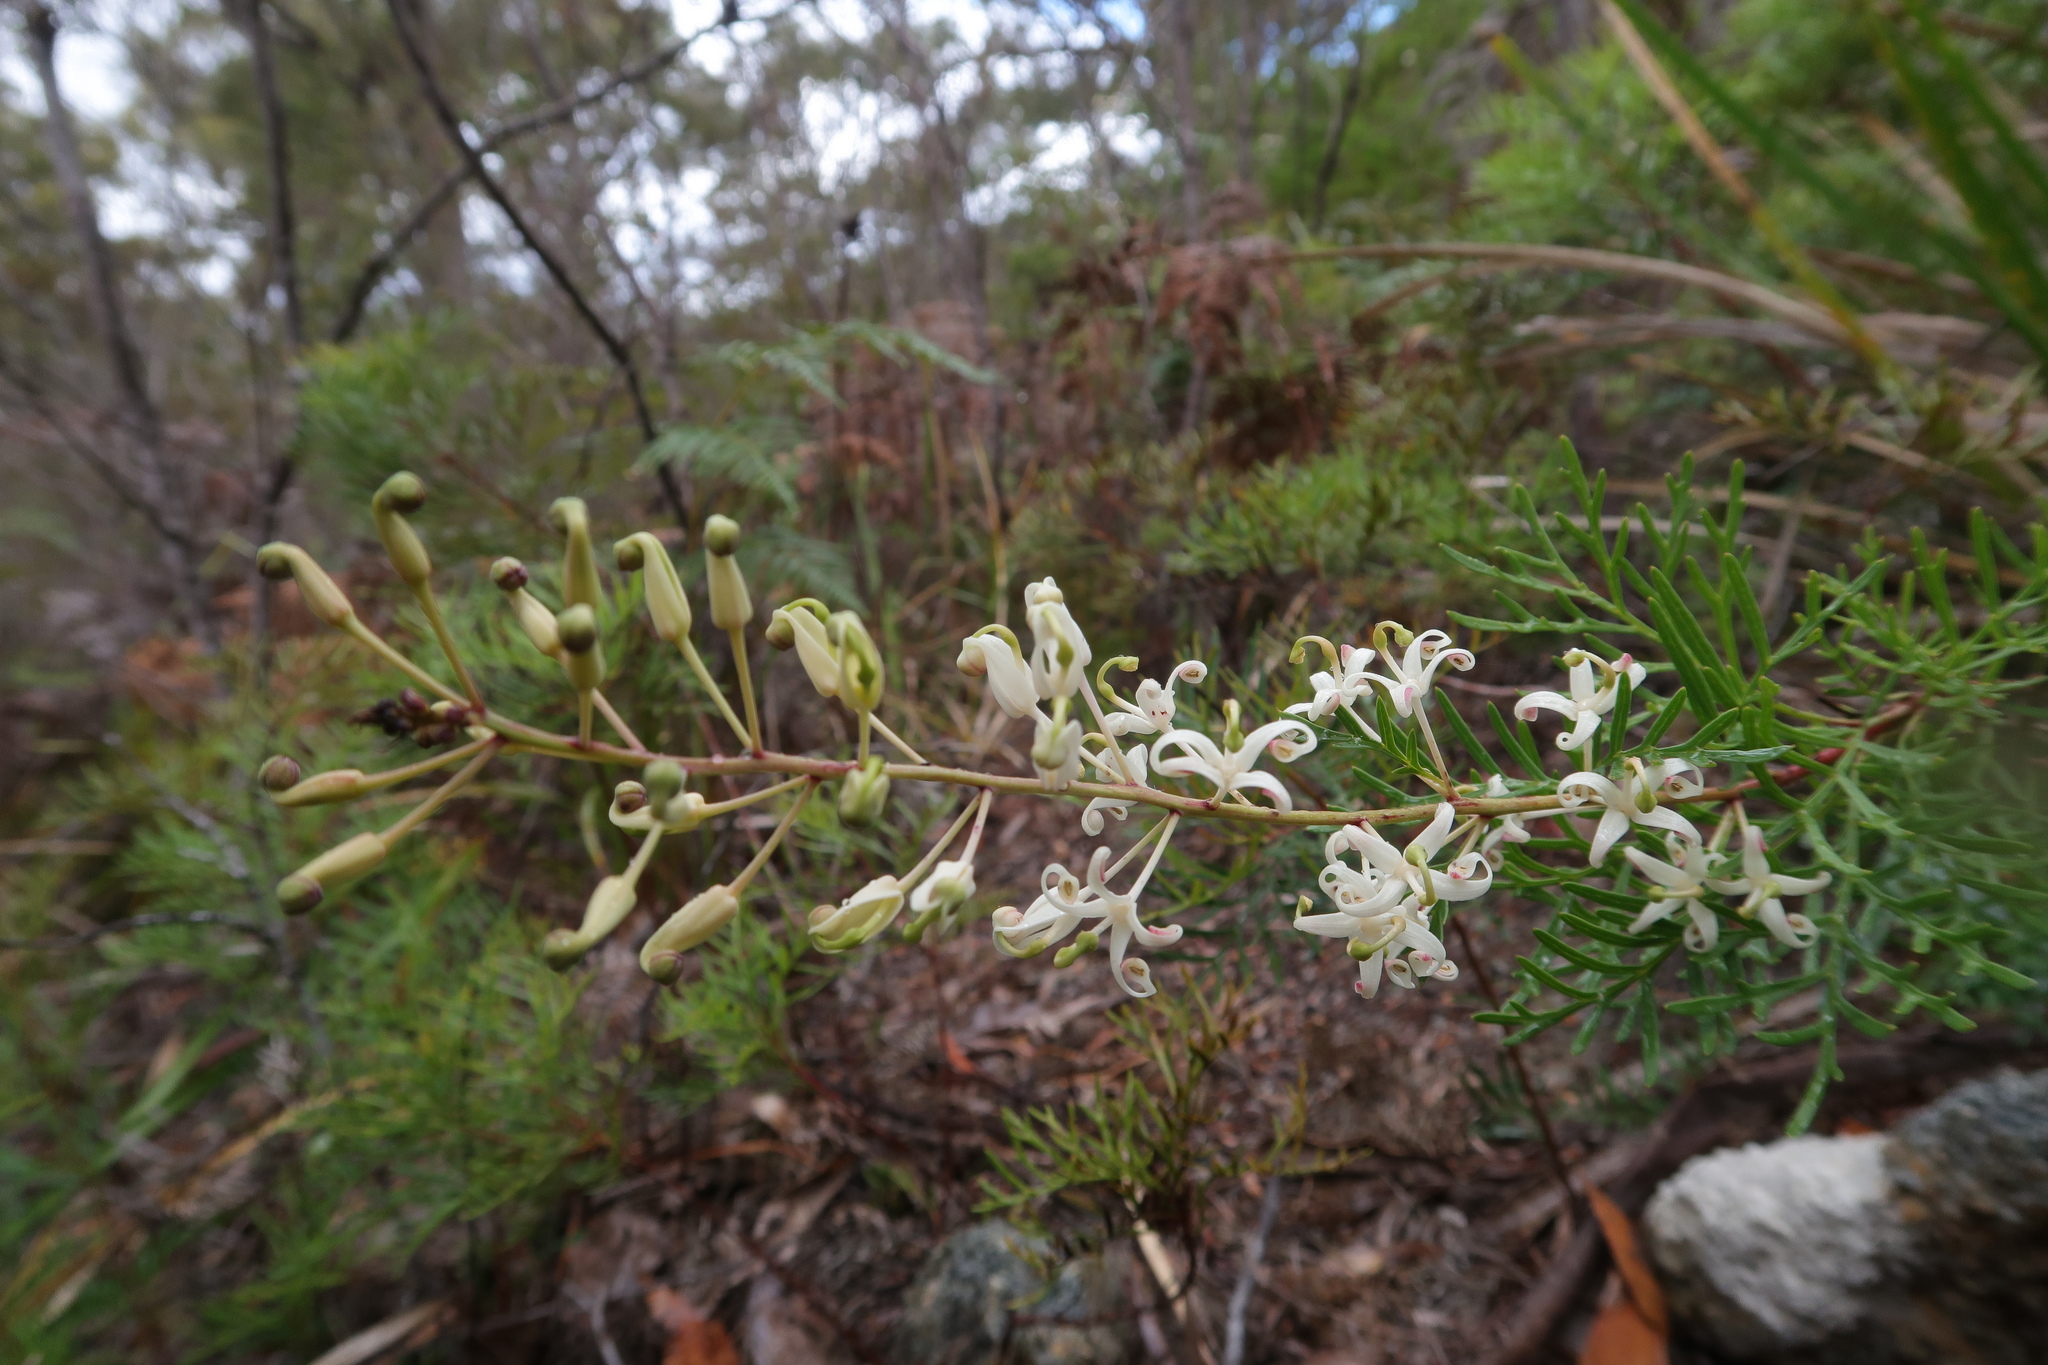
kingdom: Plantae
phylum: Tracheophyta
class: Magnoliopsida
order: Proteales
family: Proteaceae
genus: Lomatia
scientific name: Lomatia tinctoria
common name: Guitar plant
